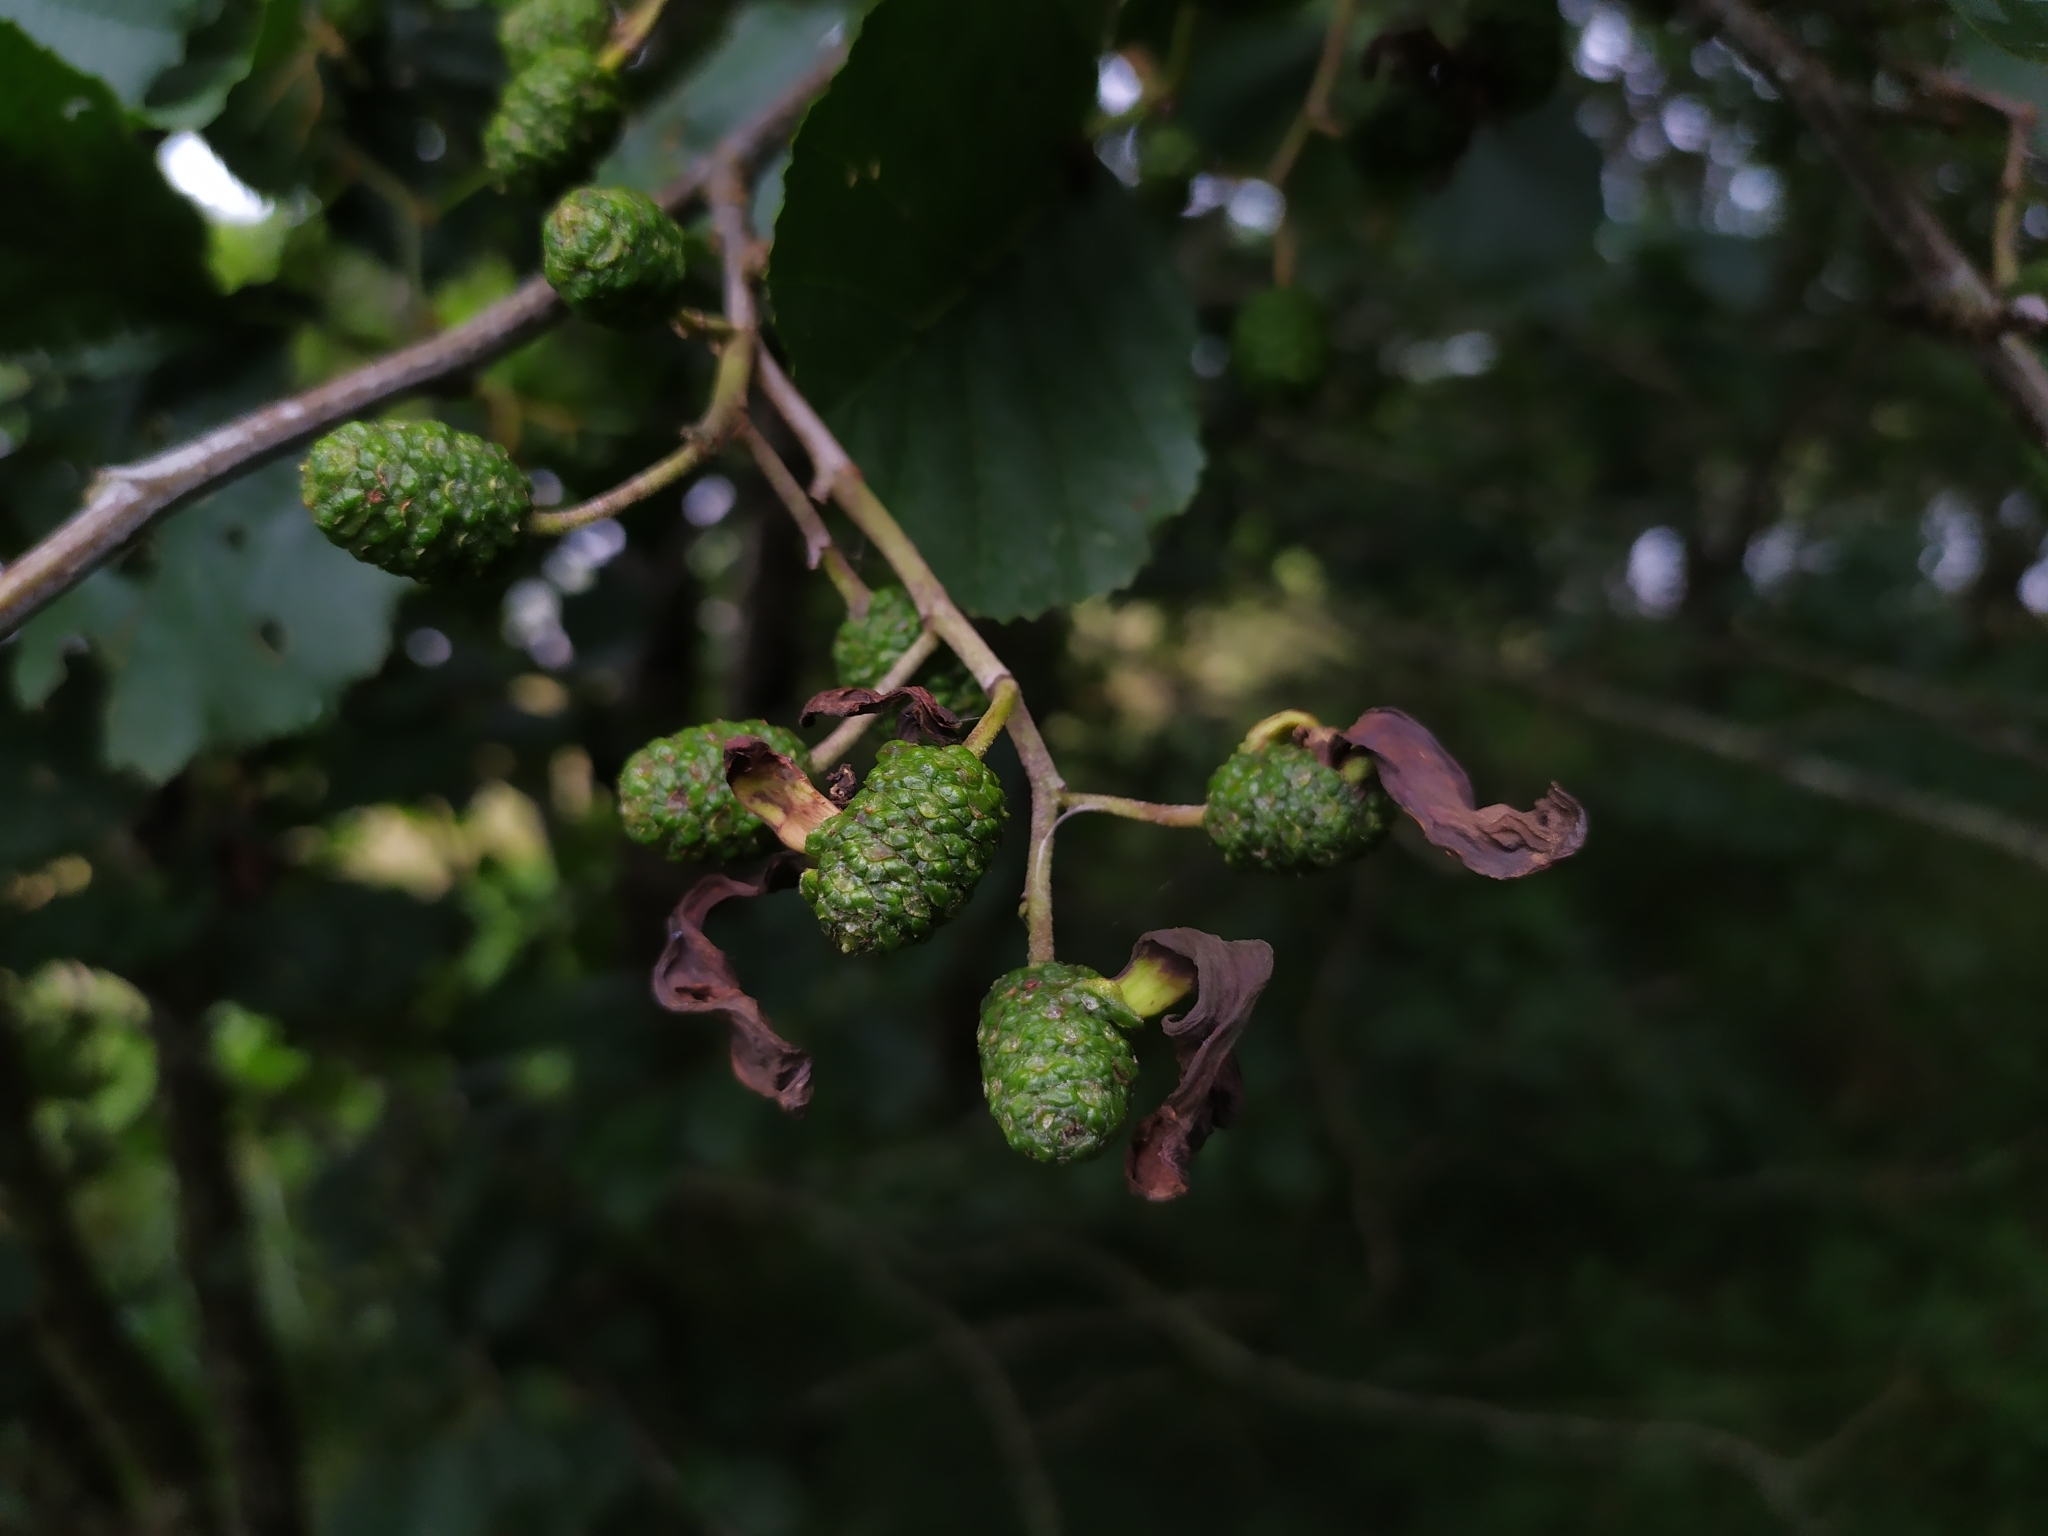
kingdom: Fungi
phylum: Ascomycota
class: Taphrinomycetes
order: Taphrinales
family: Taphrinaceae
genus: Taphrina
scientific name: Taphrina alni
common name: Alder tongue
